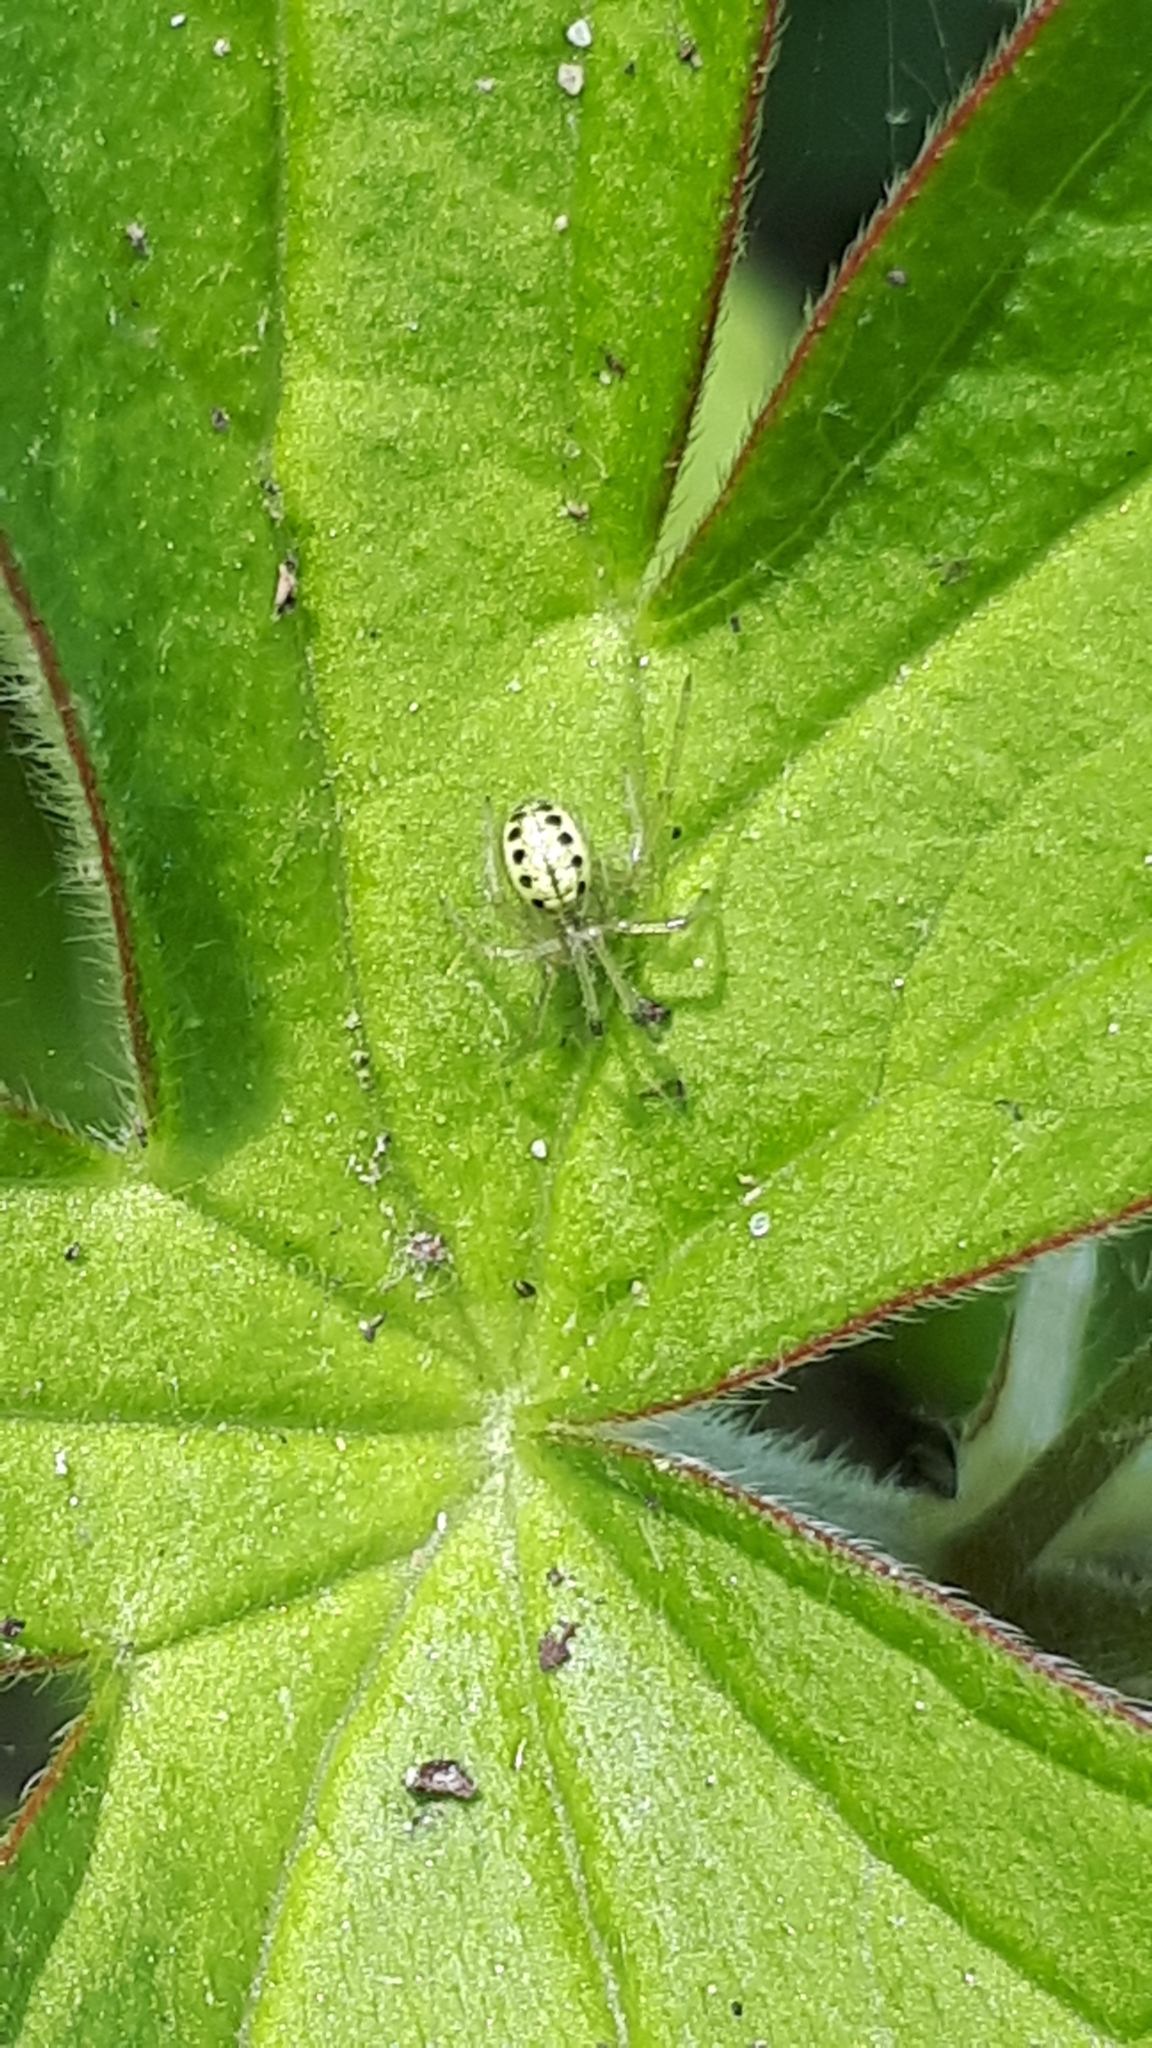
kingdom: Animalia
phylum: Arthropoda
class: Arachnida
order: Araneae
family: Theridiidae
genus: Enoplognatha
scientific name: Enoplognatha ovata
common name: Common candy-striped spider
